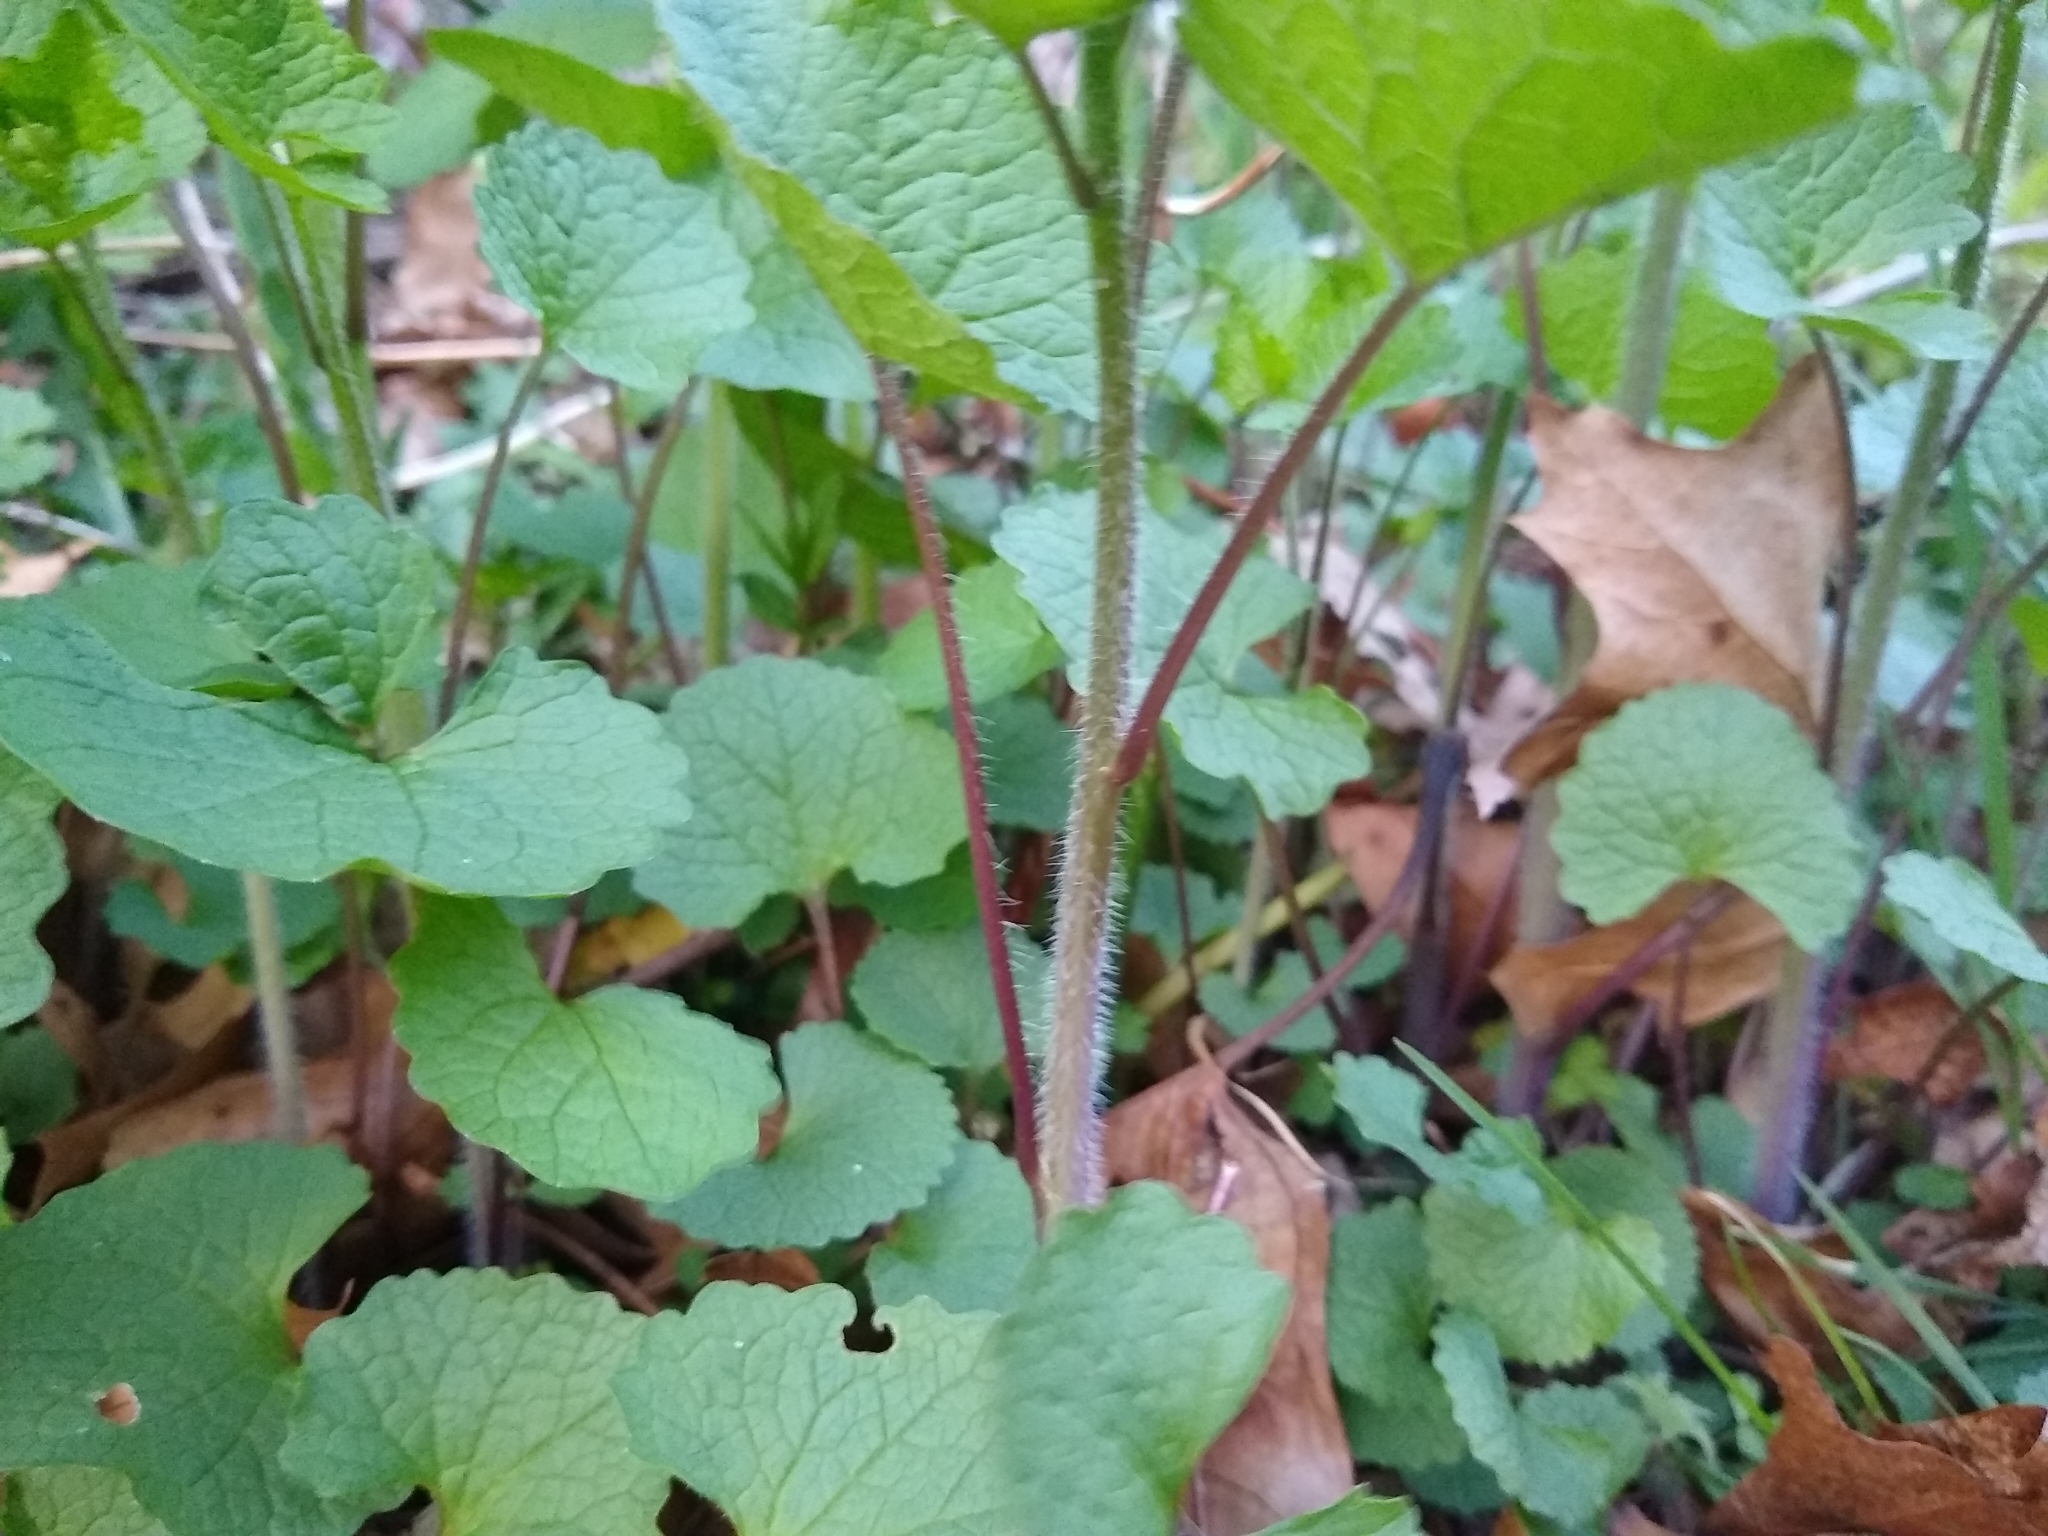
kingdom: Plantae
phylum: Tracheophyta
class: Magnoliopsida
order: Brassicales
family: Brassicaceae
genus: Alliaria
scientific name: Alliaria petiolata
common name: Garlic mustard
